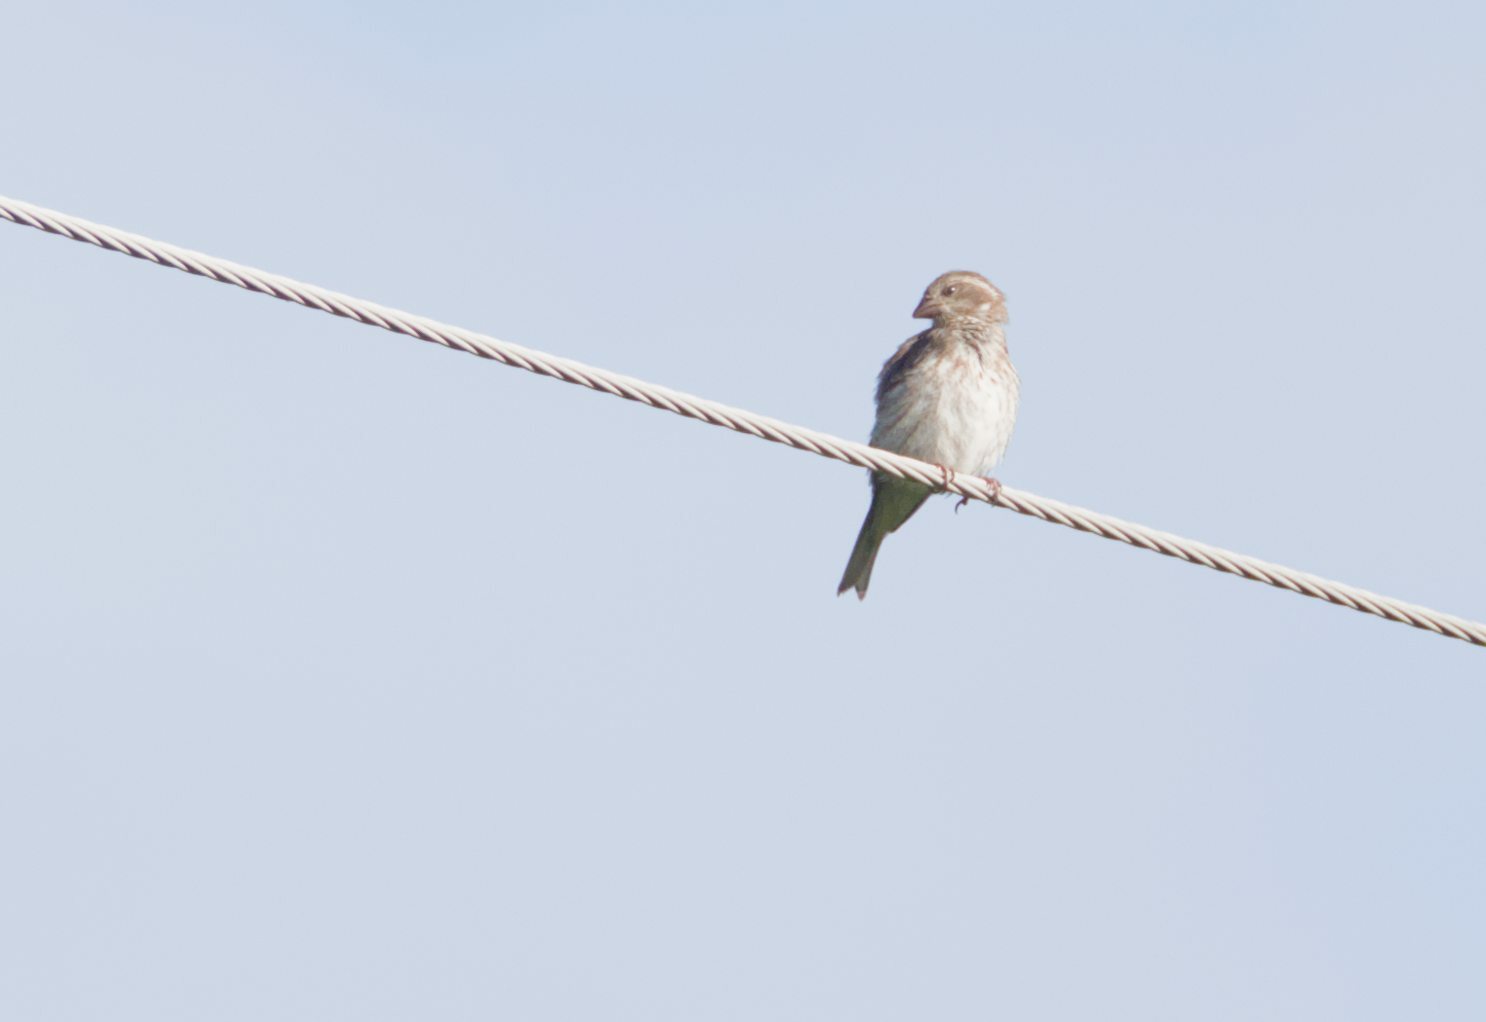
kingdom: Animalia
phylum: Chordata
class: Aves
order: Passeriformes
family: Fringillidae
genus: Haemorhous
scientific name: Haemorhous purpureus
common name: Purple finch
